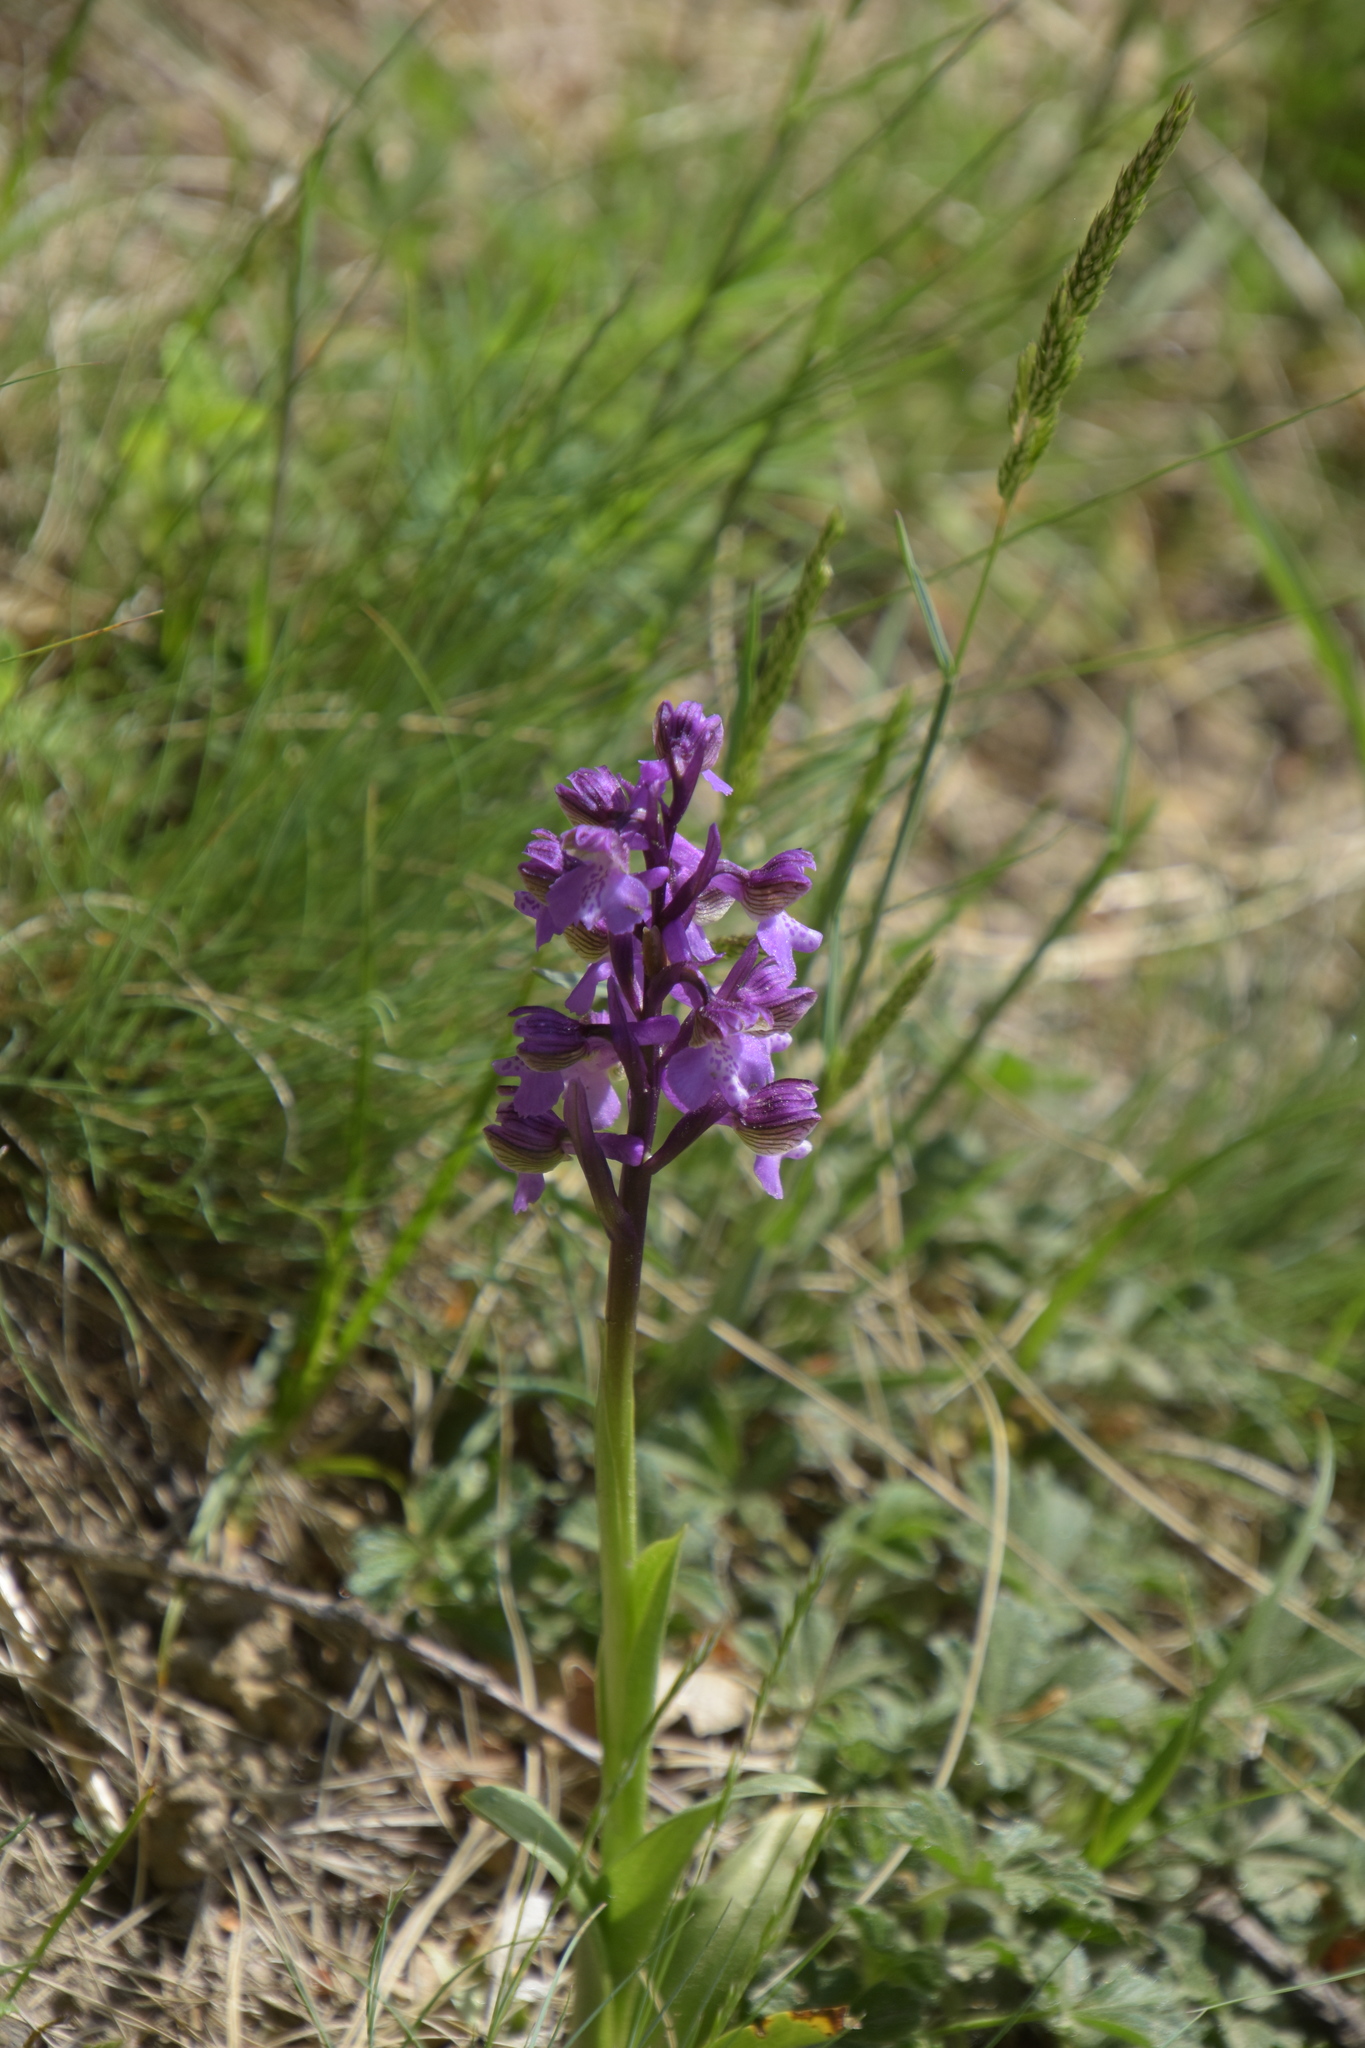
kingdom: Plantae
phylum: Tracheophyta
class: Liliopsida
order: Asparagales
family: Orchidaceae
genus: Anacamptis
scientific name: Anacamptis morio
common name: Green-winged orchid
